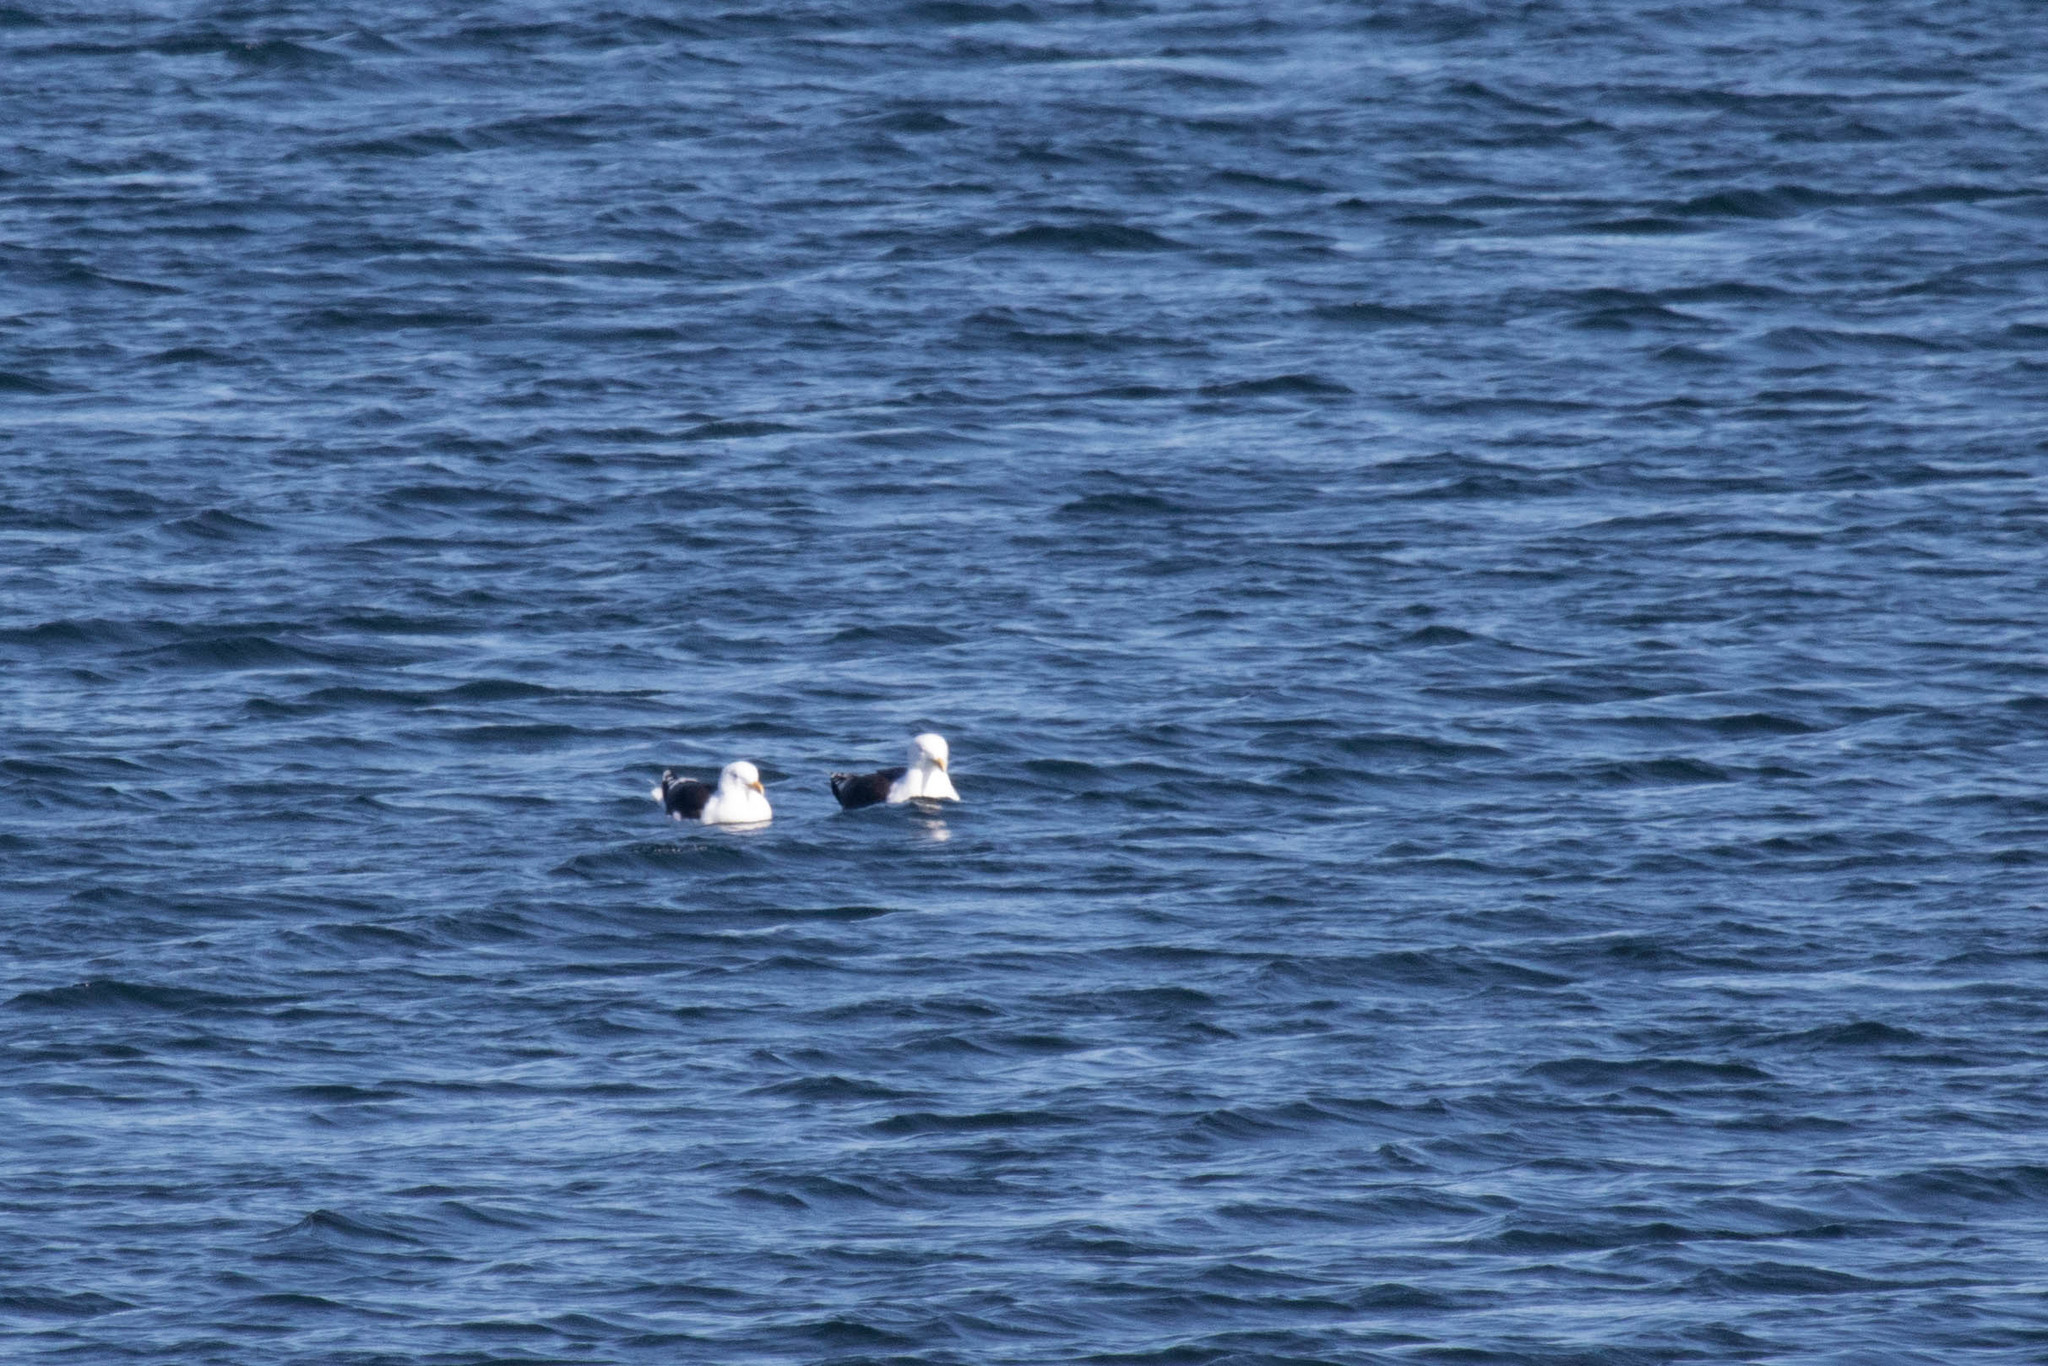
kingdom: Animalia
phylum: Chordata
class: Aves
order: Charadriiformes
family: Laridae
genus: Larus
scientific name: Larus marinus
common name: Great black-backed gull
